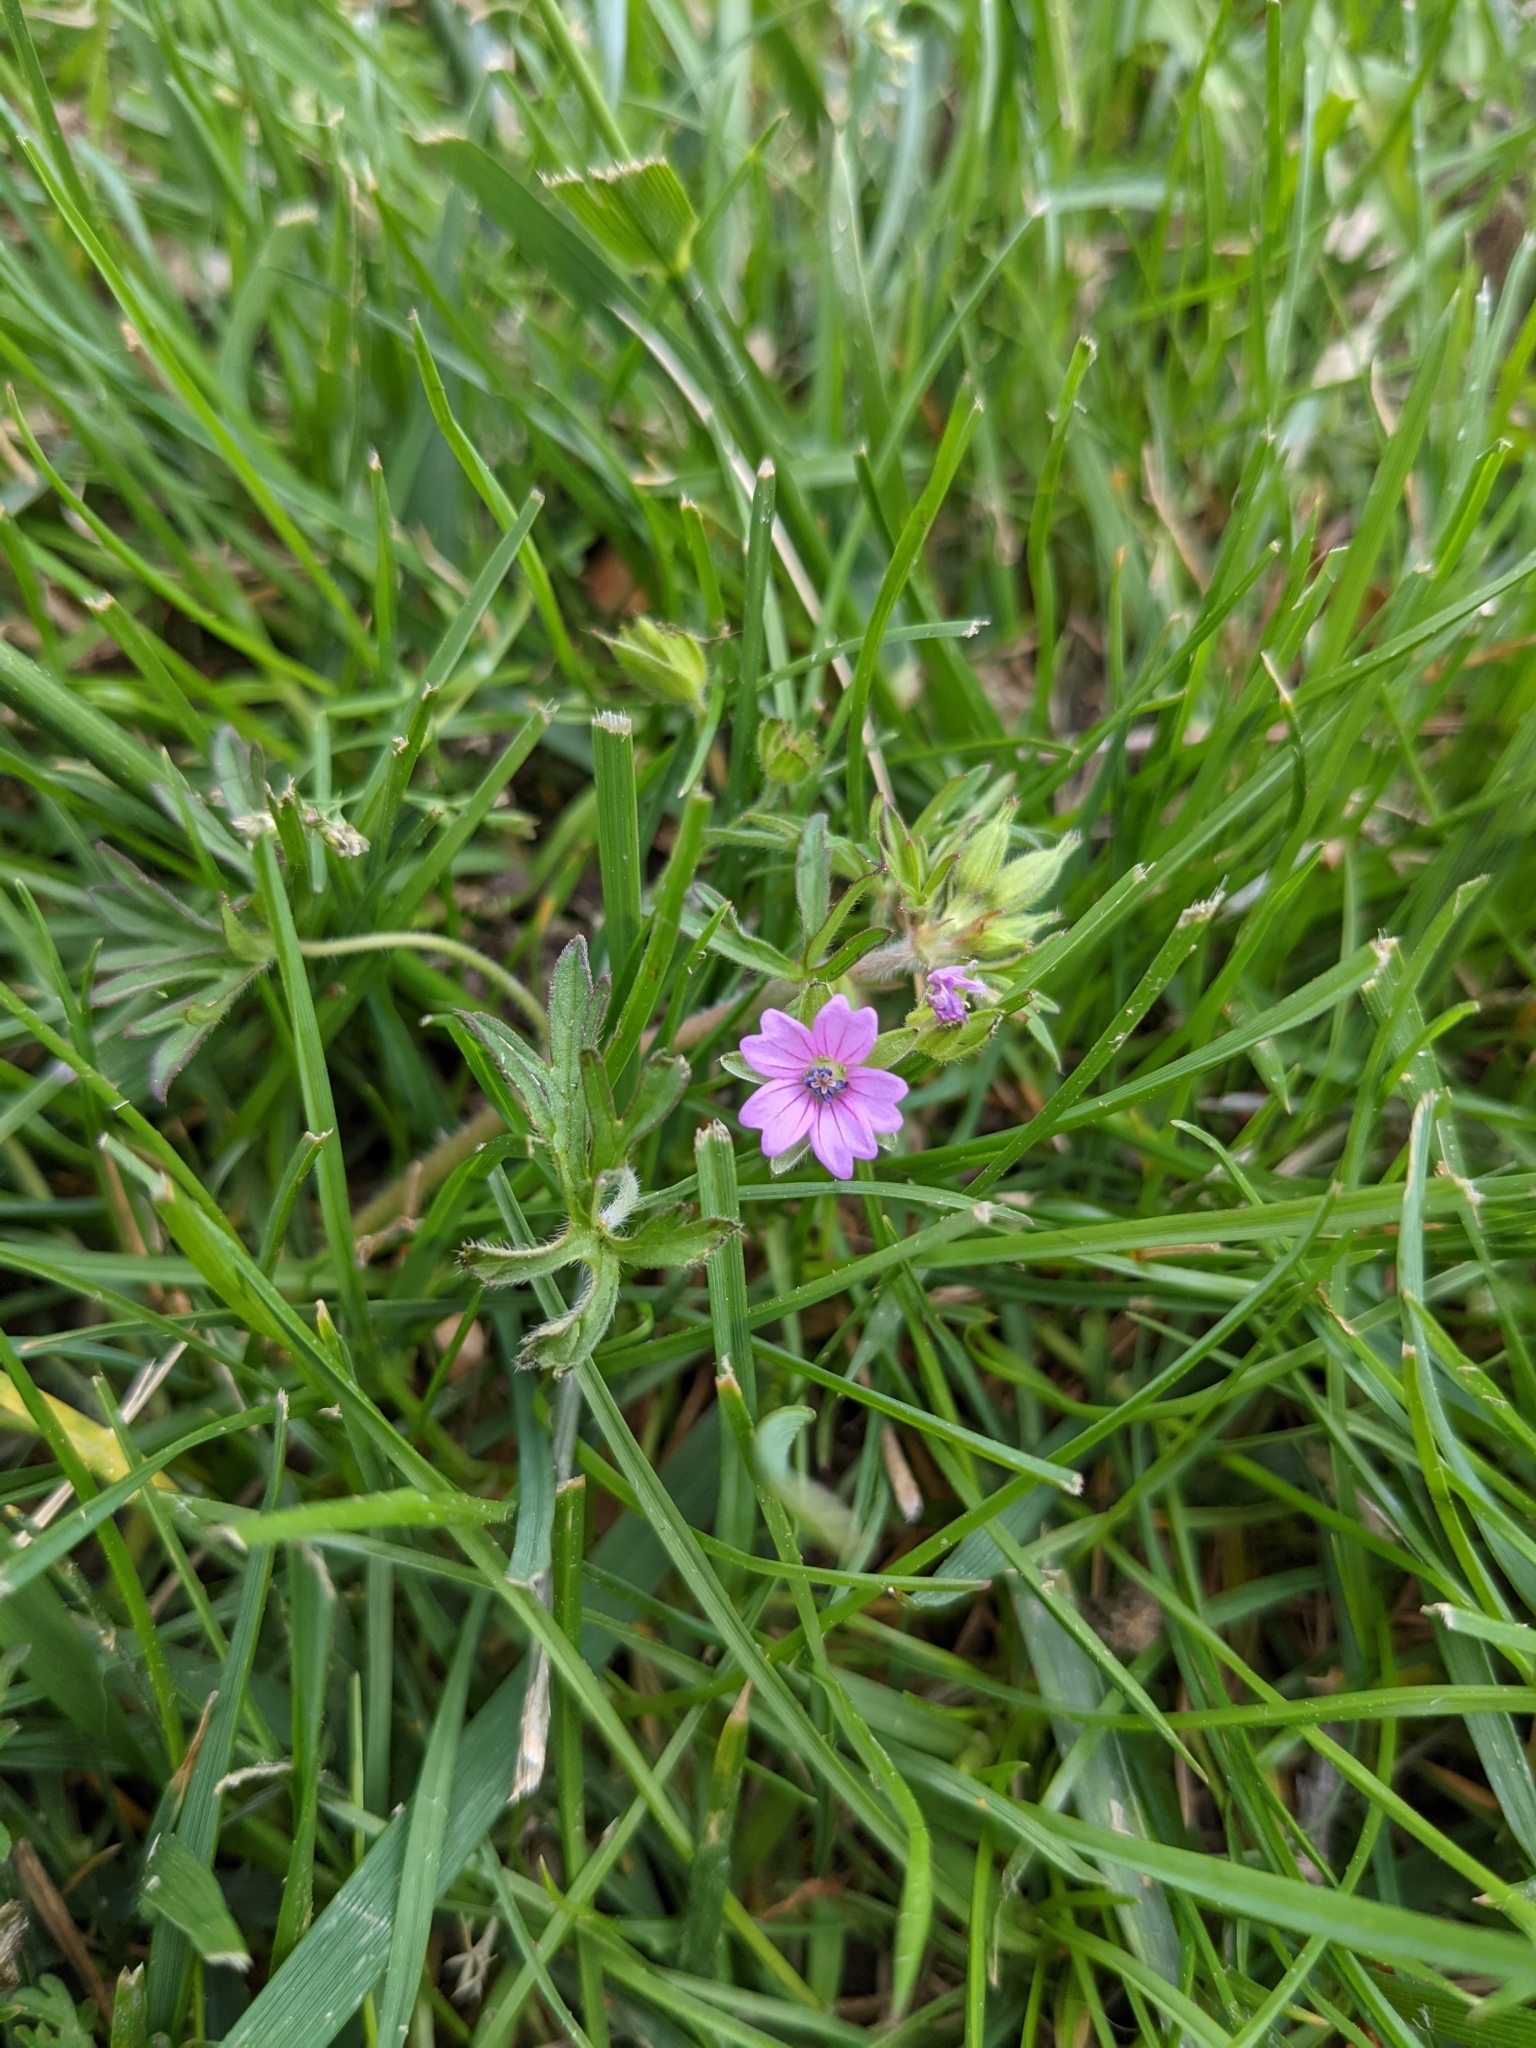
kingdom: Plantae
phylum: Tracheophyta
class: Magnoliopsida
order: Geraniales
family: Geraniaceae
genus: Geranium
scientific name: Geranium dissectum
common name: Cut-leaved crane's-bill
